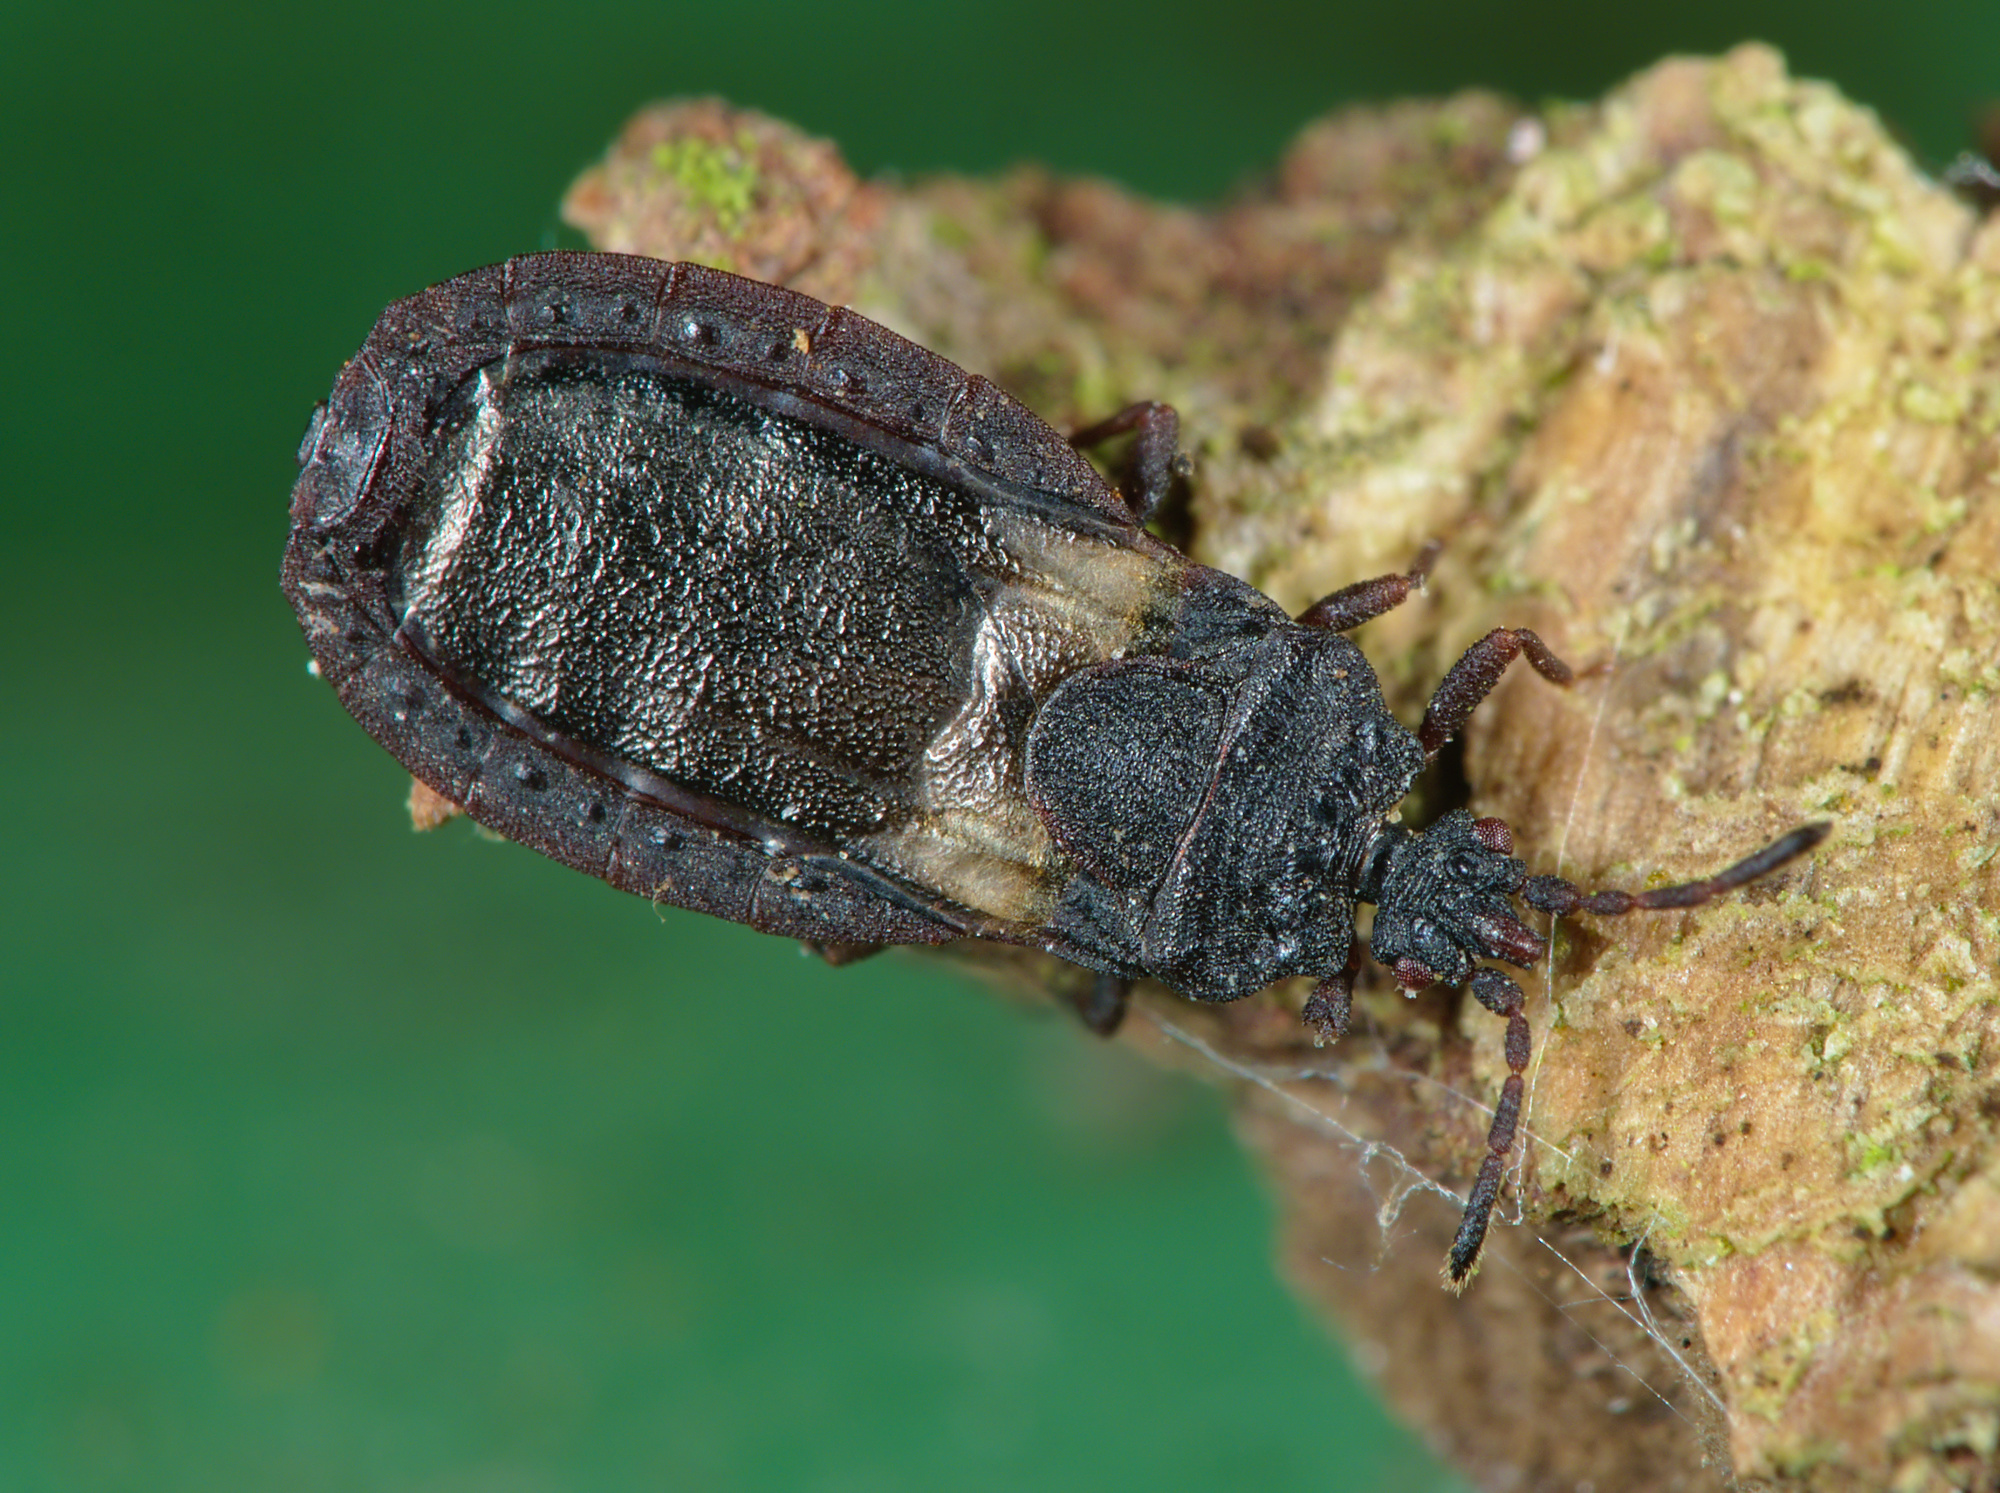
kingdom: Animalia
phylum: Arthropoda
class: Insecta
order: Hemiptera
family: Aradidae
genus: Aneurus
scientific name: Aneurus avenius
